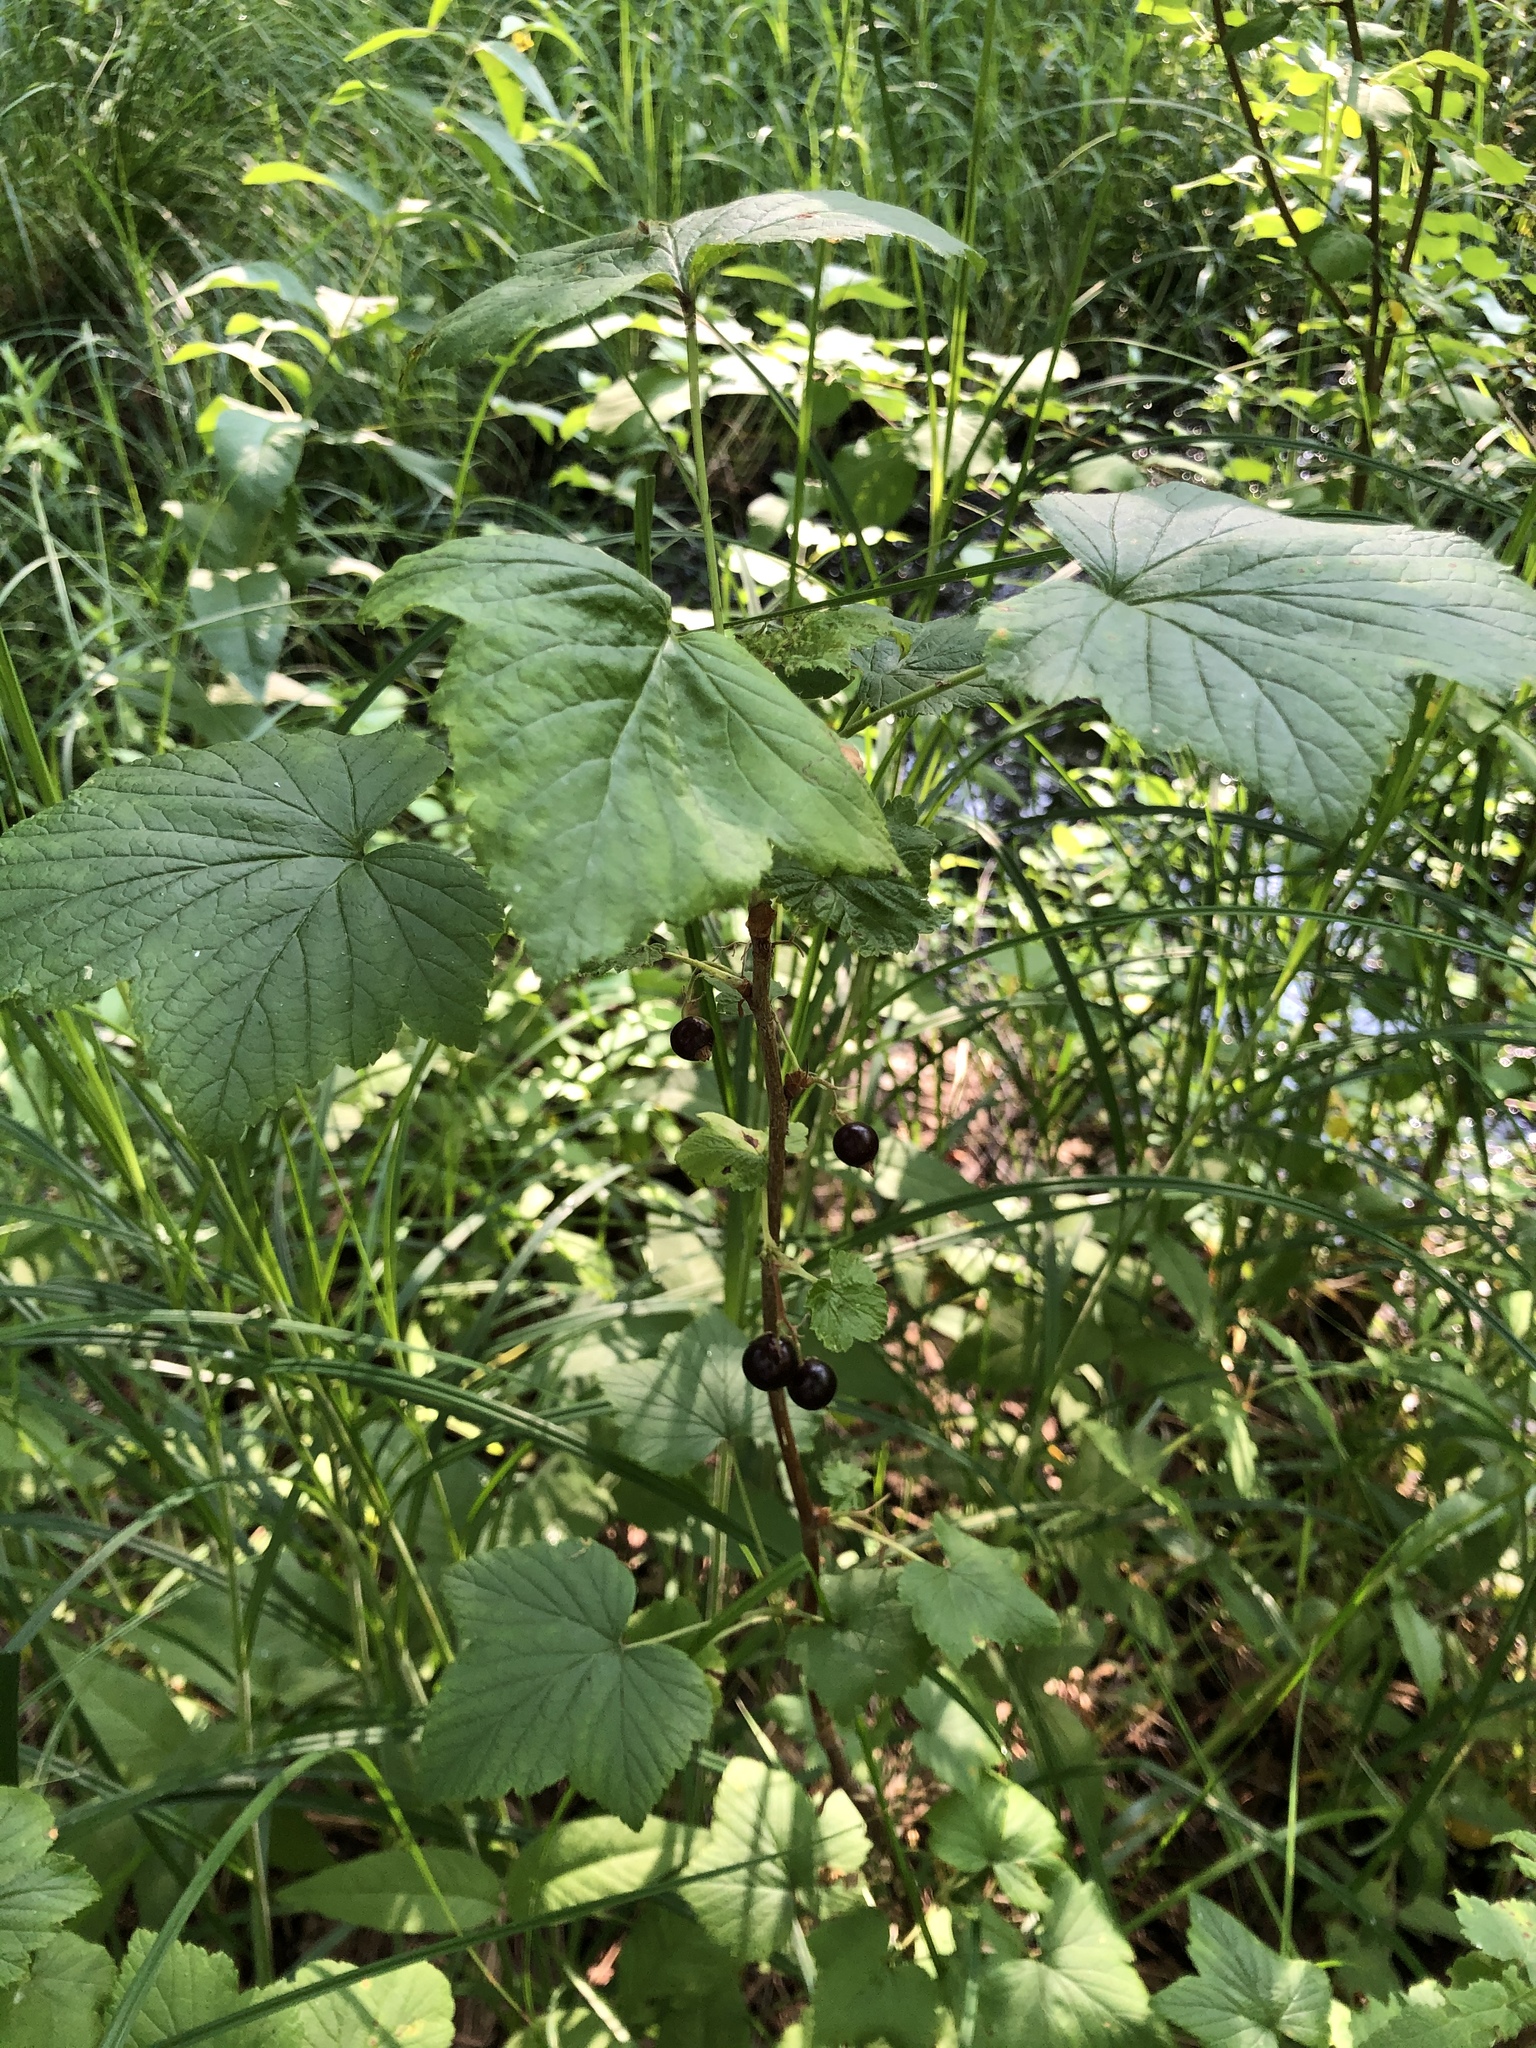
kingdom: Plantae
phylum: Tracheophyta
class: Magnoliopsida
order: Saxifragales
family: Grossulariaceae
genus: Ribes
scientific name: Ribes nigrum
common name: Black currant
